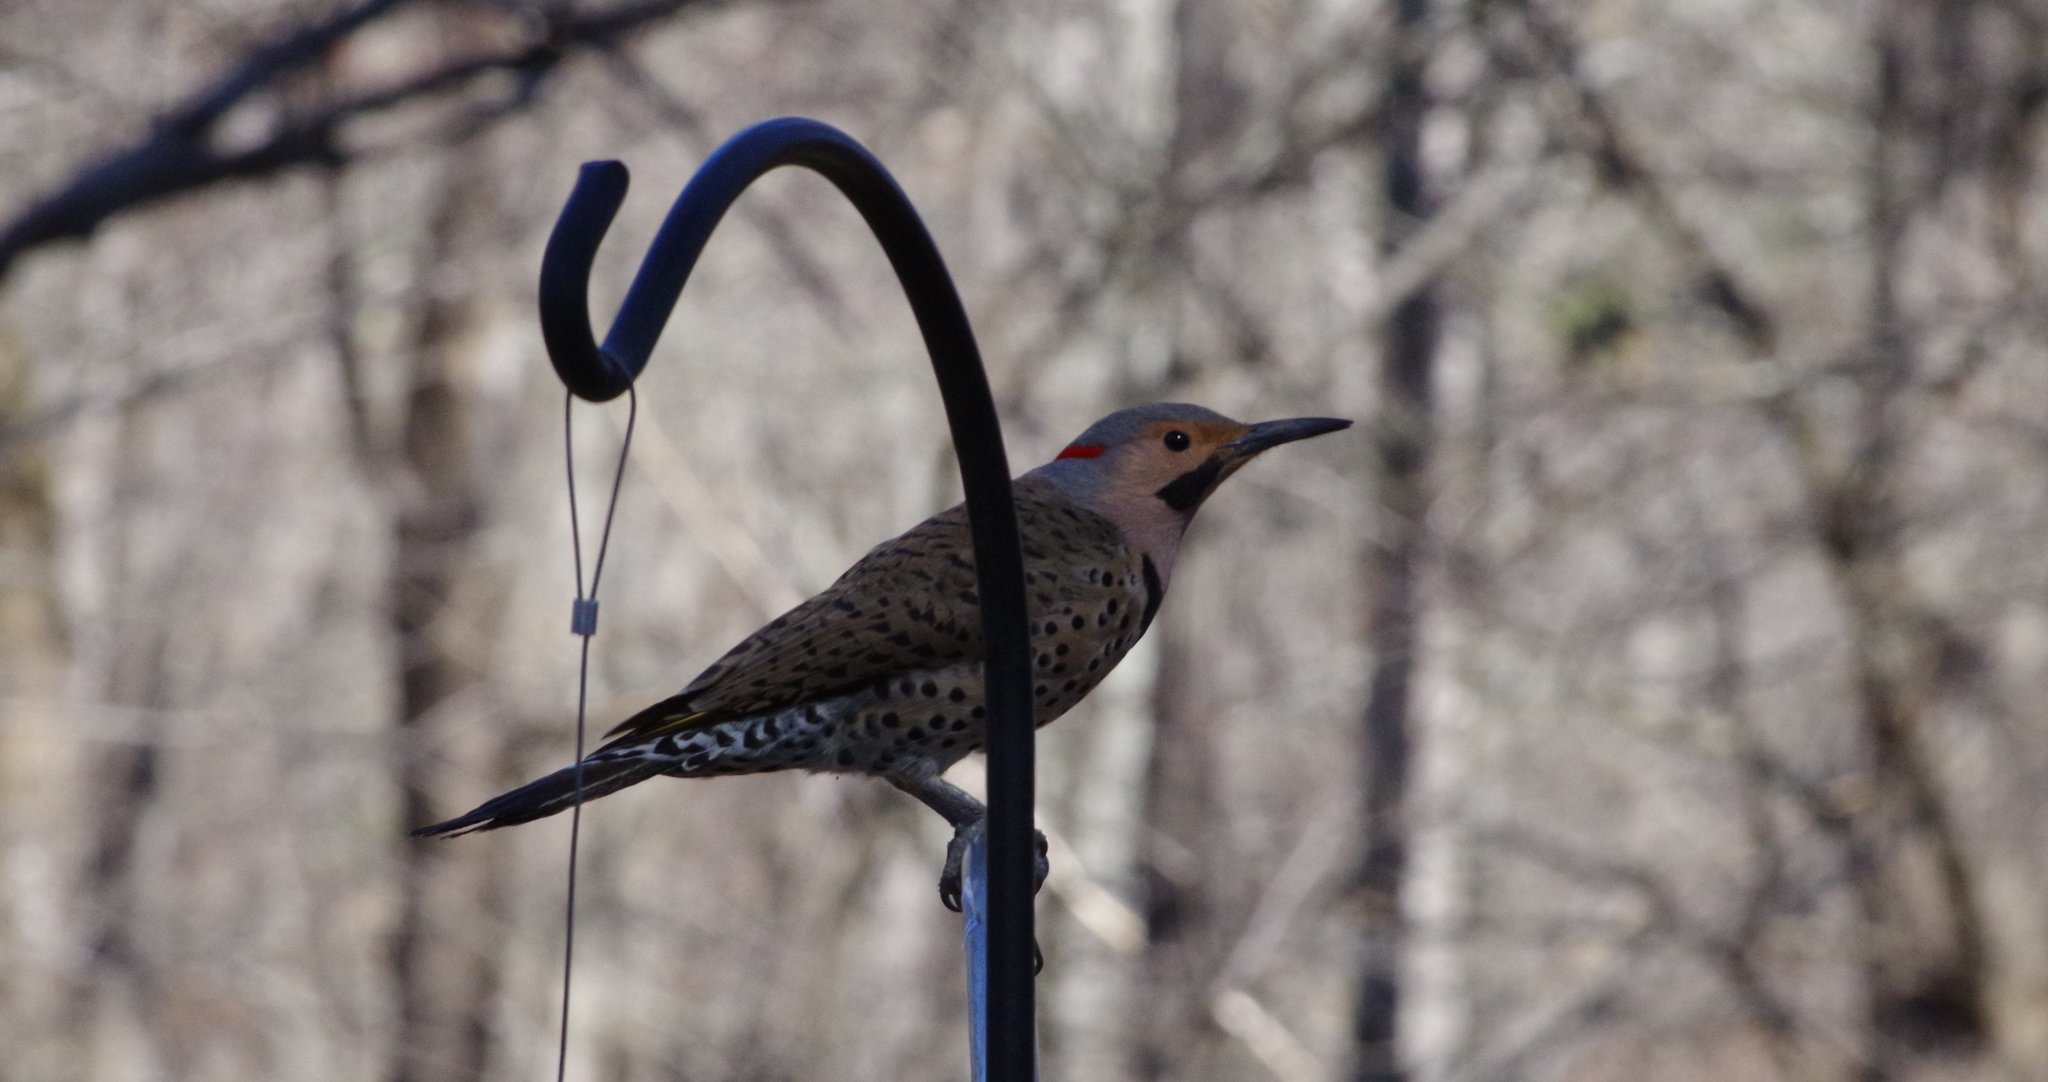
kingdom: Animalia
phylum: Chordata
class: Aves
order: Piciformes
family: Picidae
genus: Colaptes
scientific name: Colaptes auratus
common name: Northern flicker
